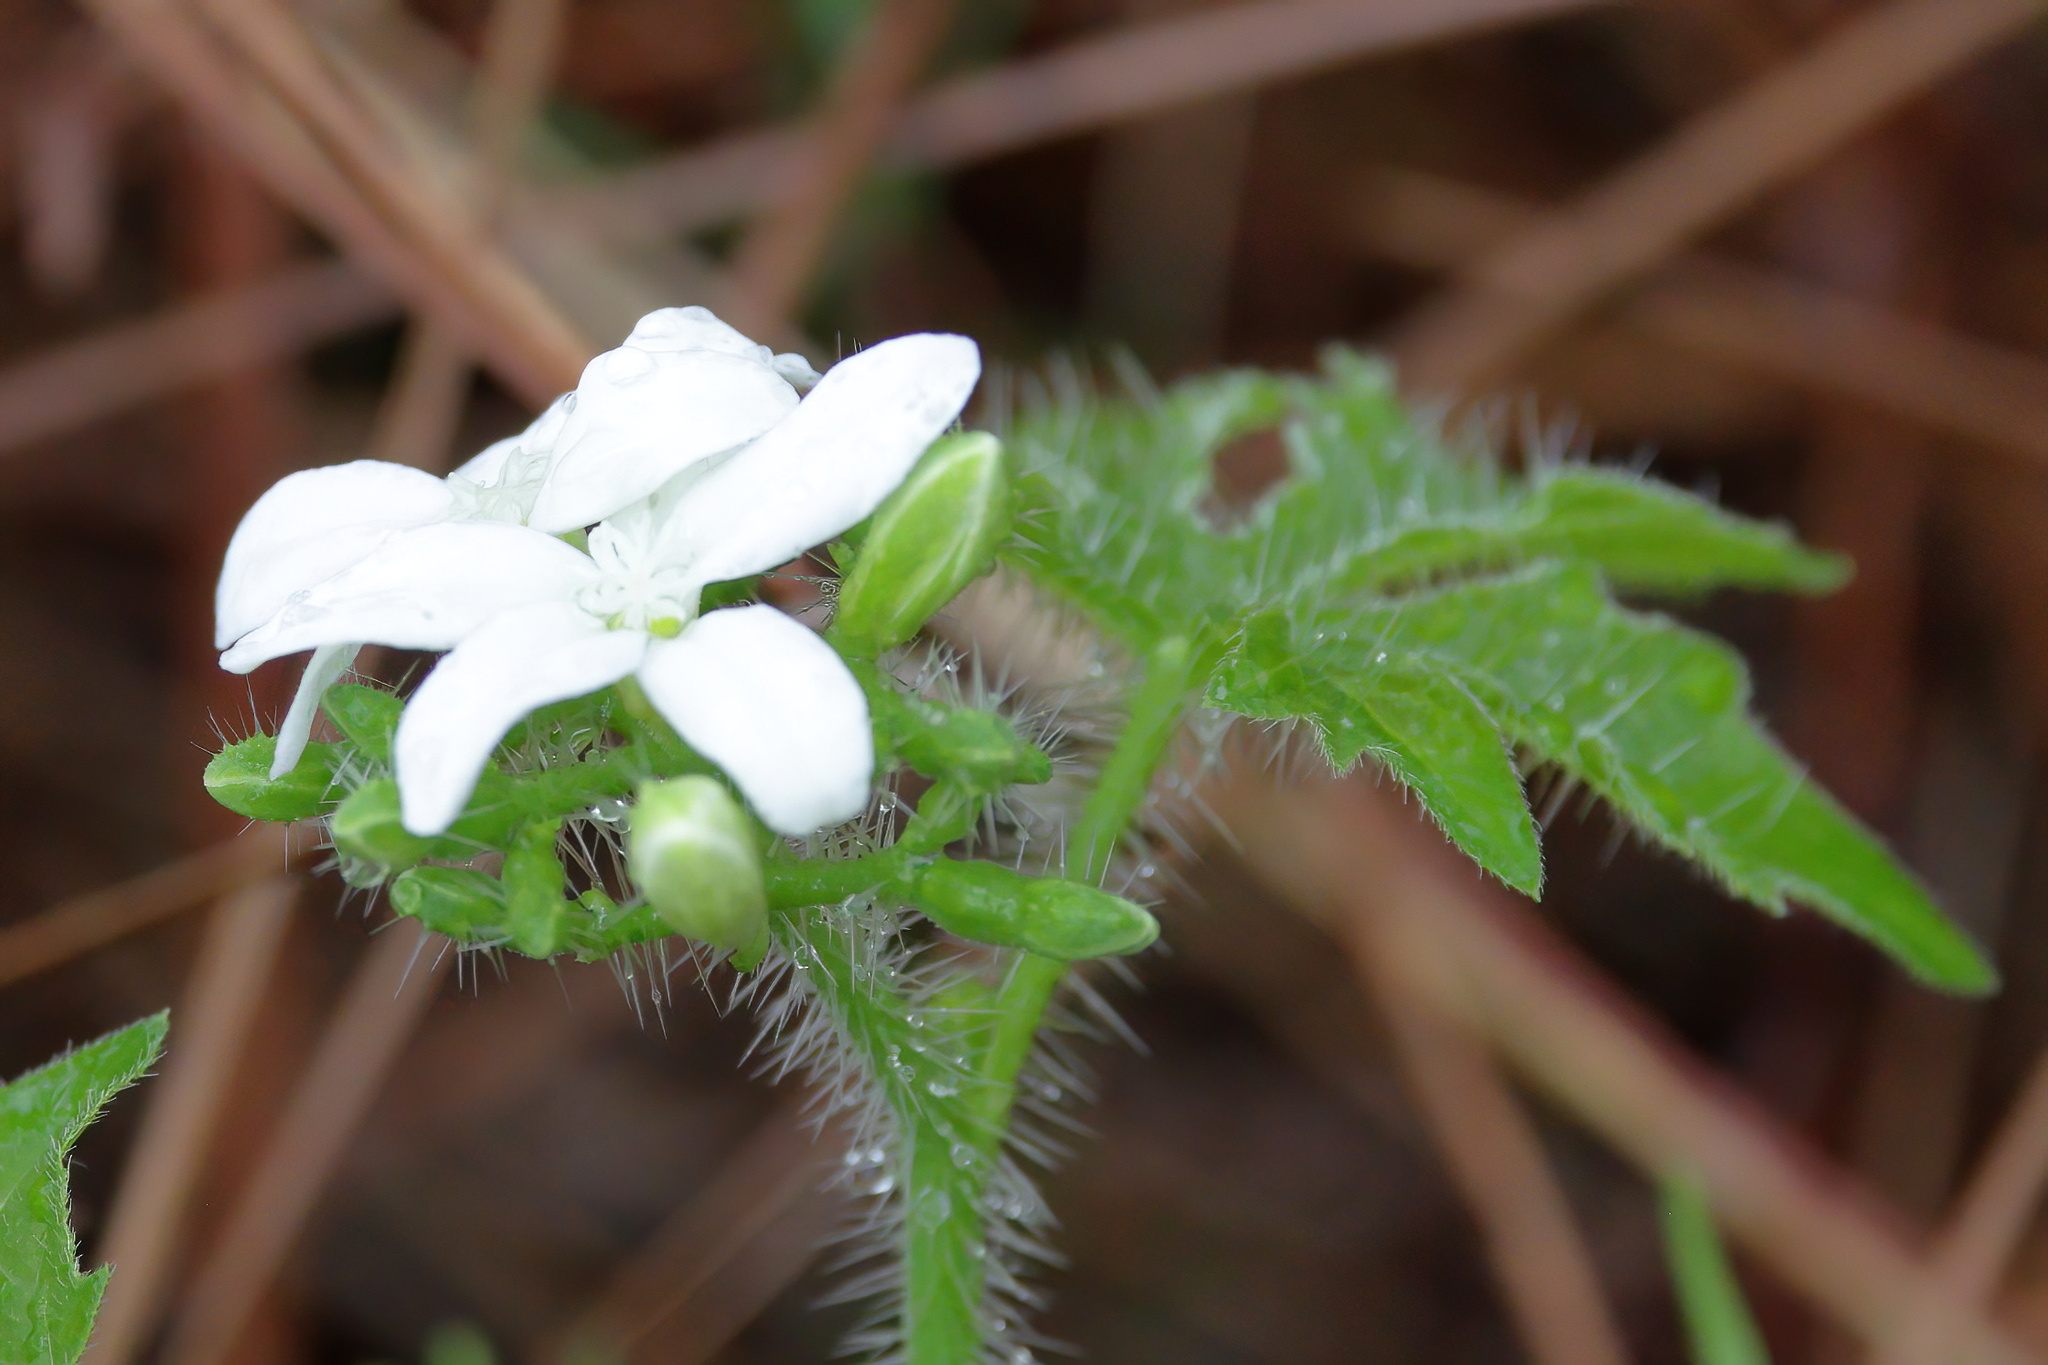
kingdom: Plantae
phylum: Tracheophyta
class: Magnoliopsida
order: Malpighiales
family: Euphorbiaceae
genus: Cnidoscolus
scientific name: Cnidoscolus stimulosus
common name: Bull-nettle
